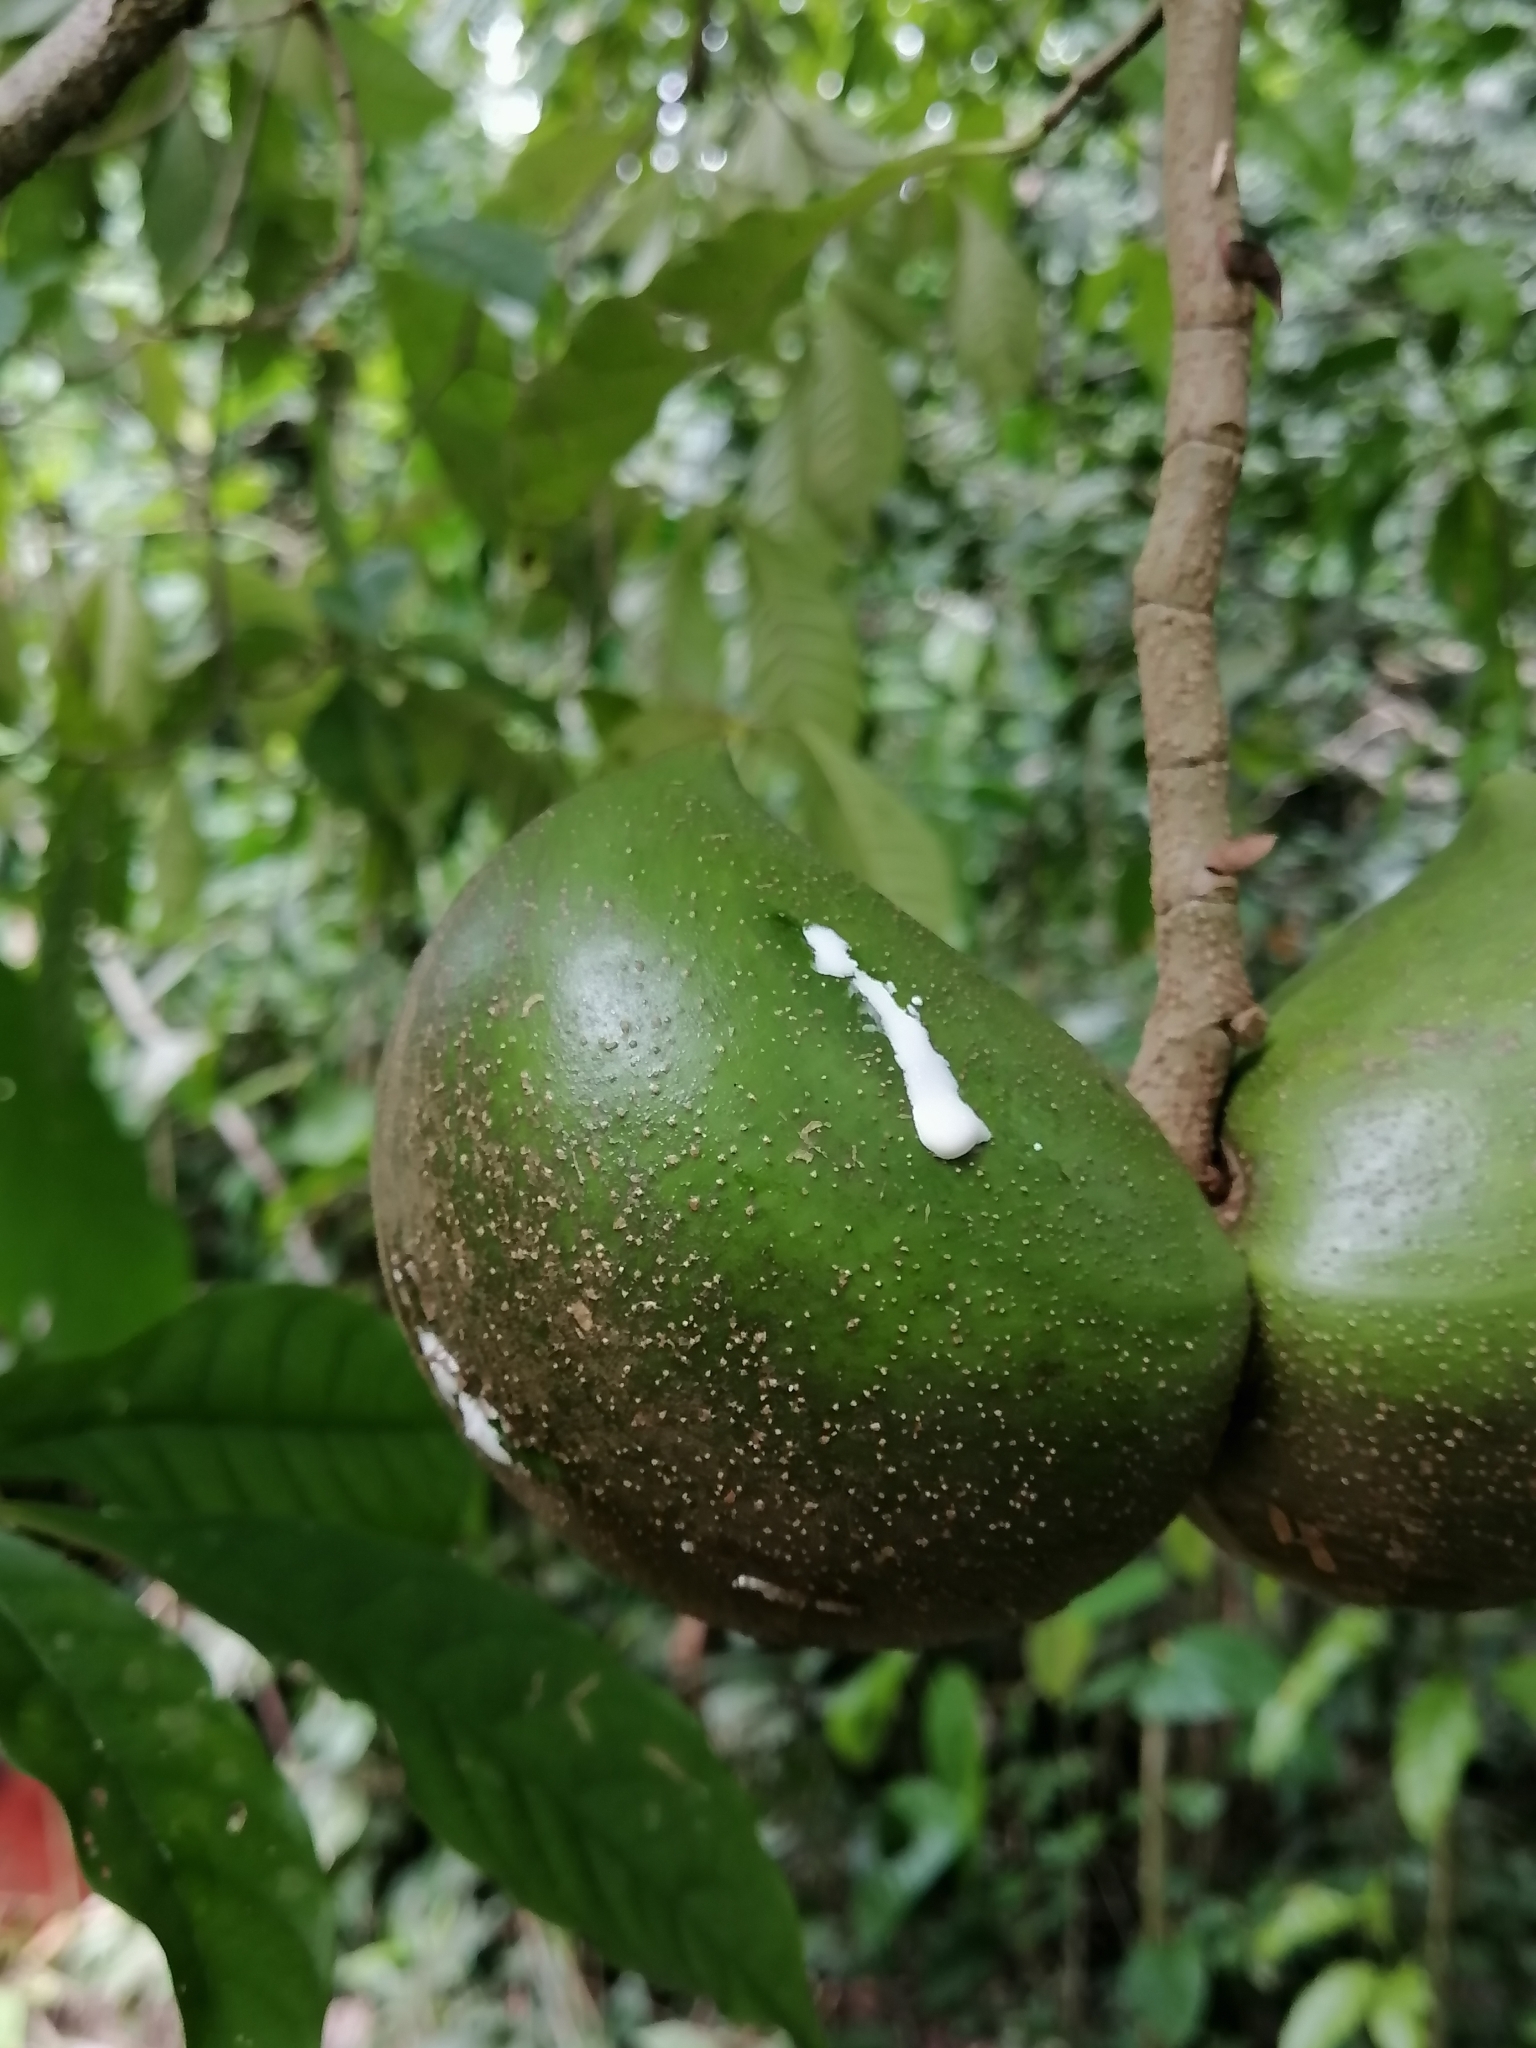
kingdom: Plantae
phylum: Tracheophyta
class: Magnoliopsida
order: Gentianales
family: Apocynaceae
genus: Tabernaemontana
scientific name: Tabernaemontana donnell-smithii
